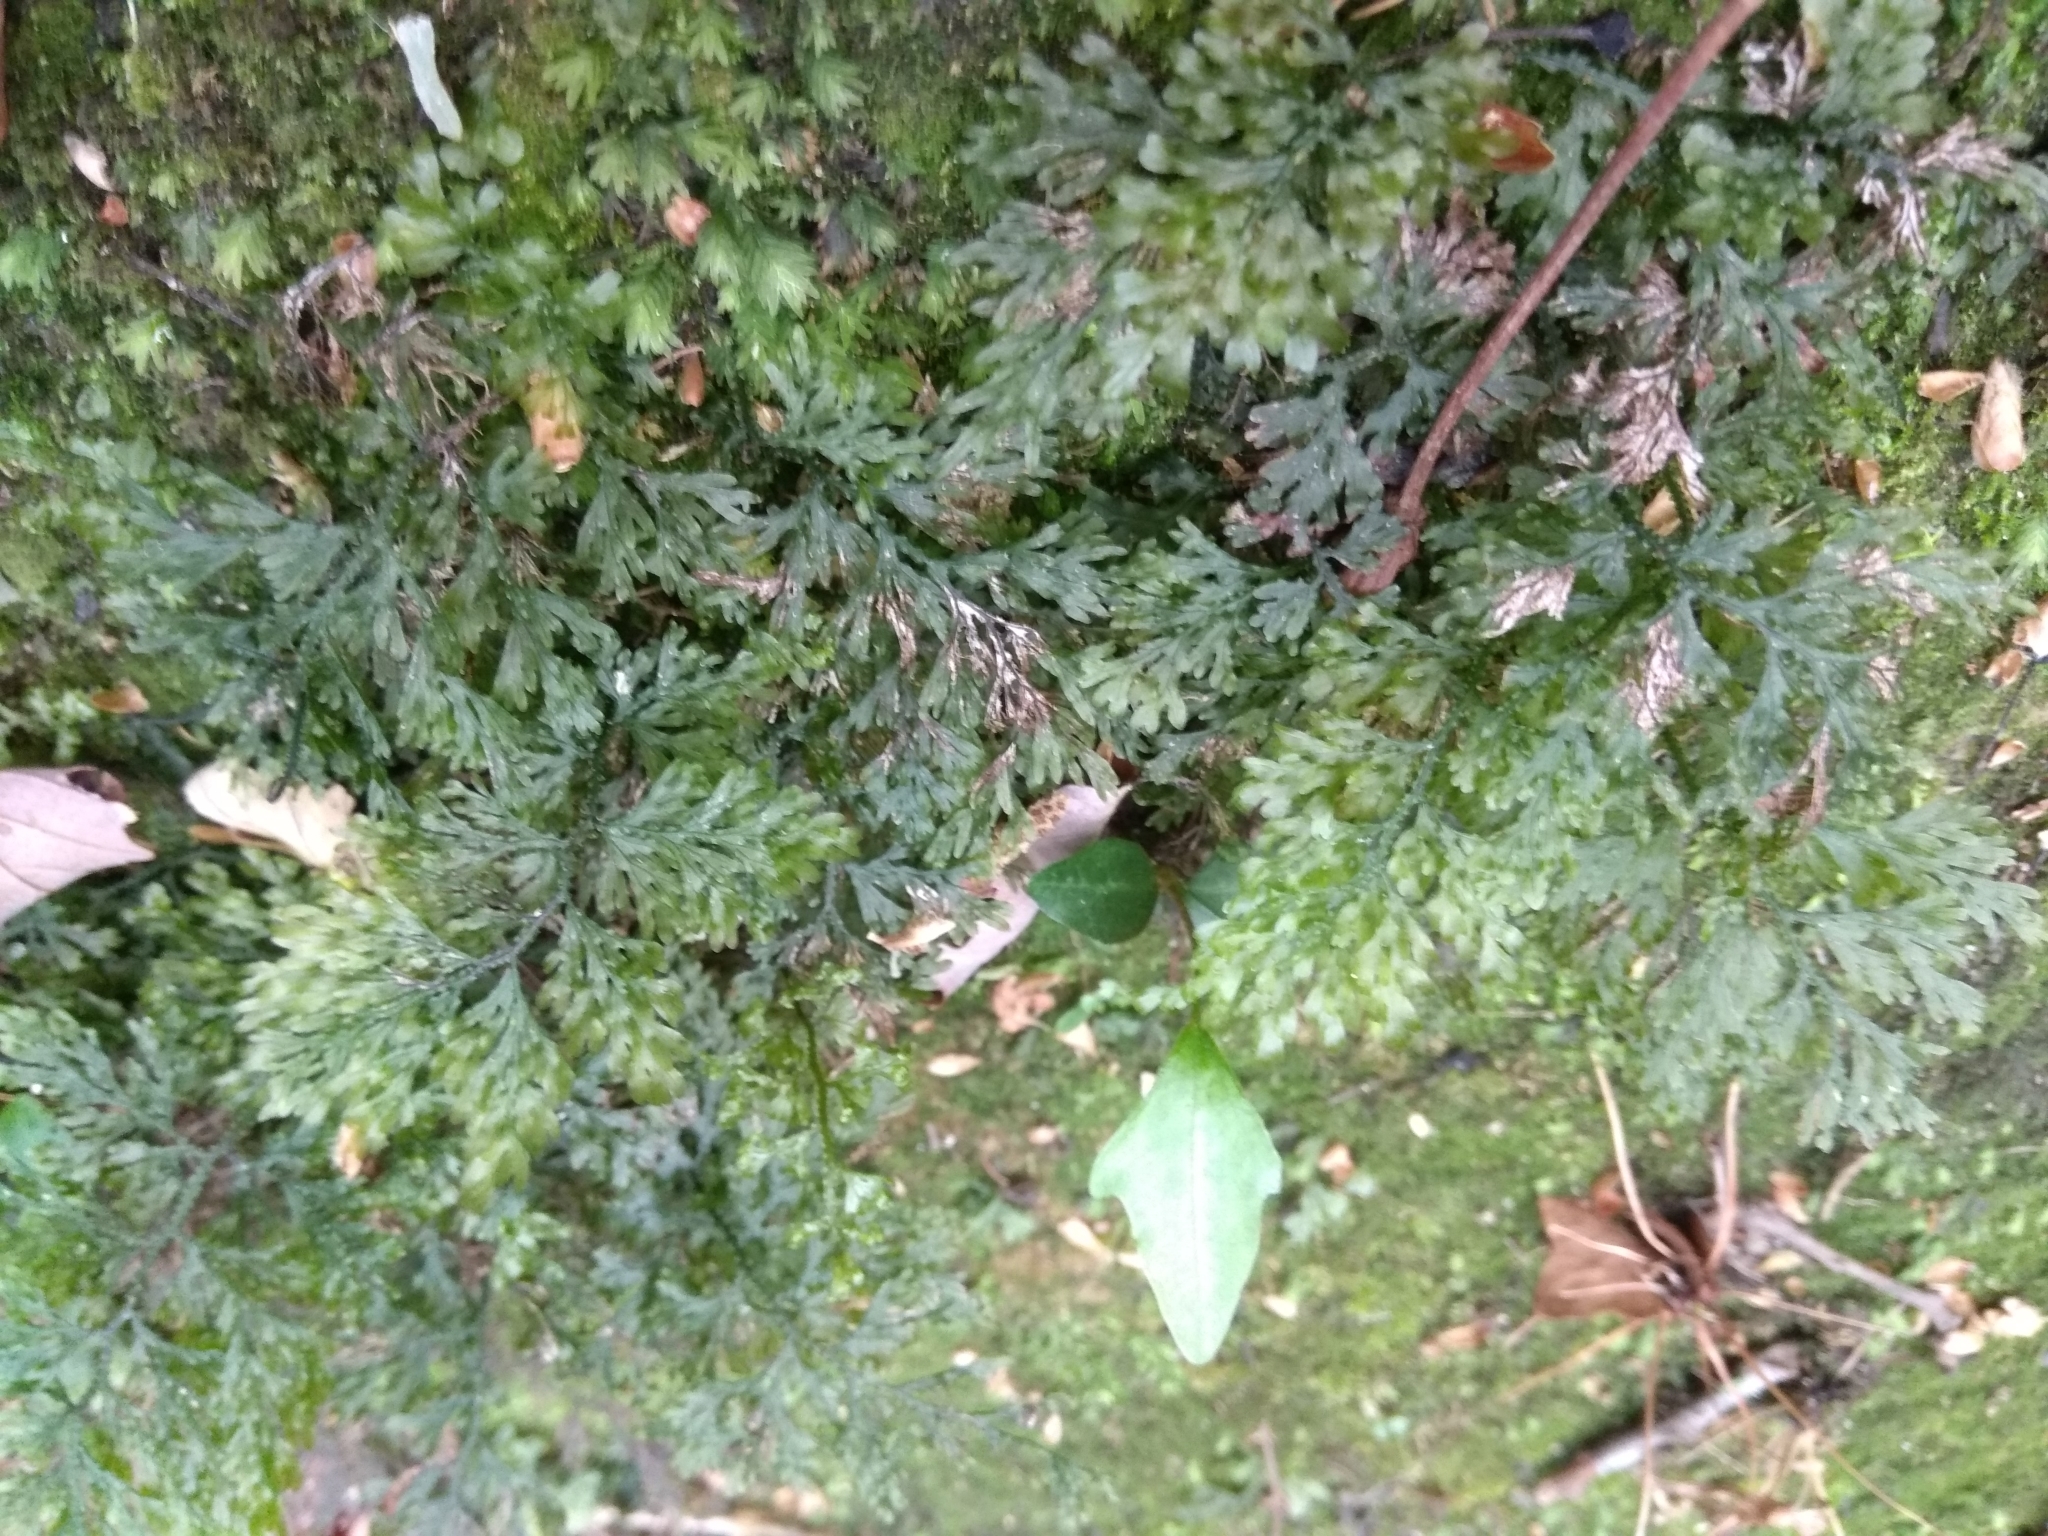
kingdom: Plantae
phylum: Tracheophyta
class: Polypodiopsida
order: Hymenophyllales
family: Hymenophyllaceae
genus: Vandenboschia
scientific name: Vandenboschia speciosa
